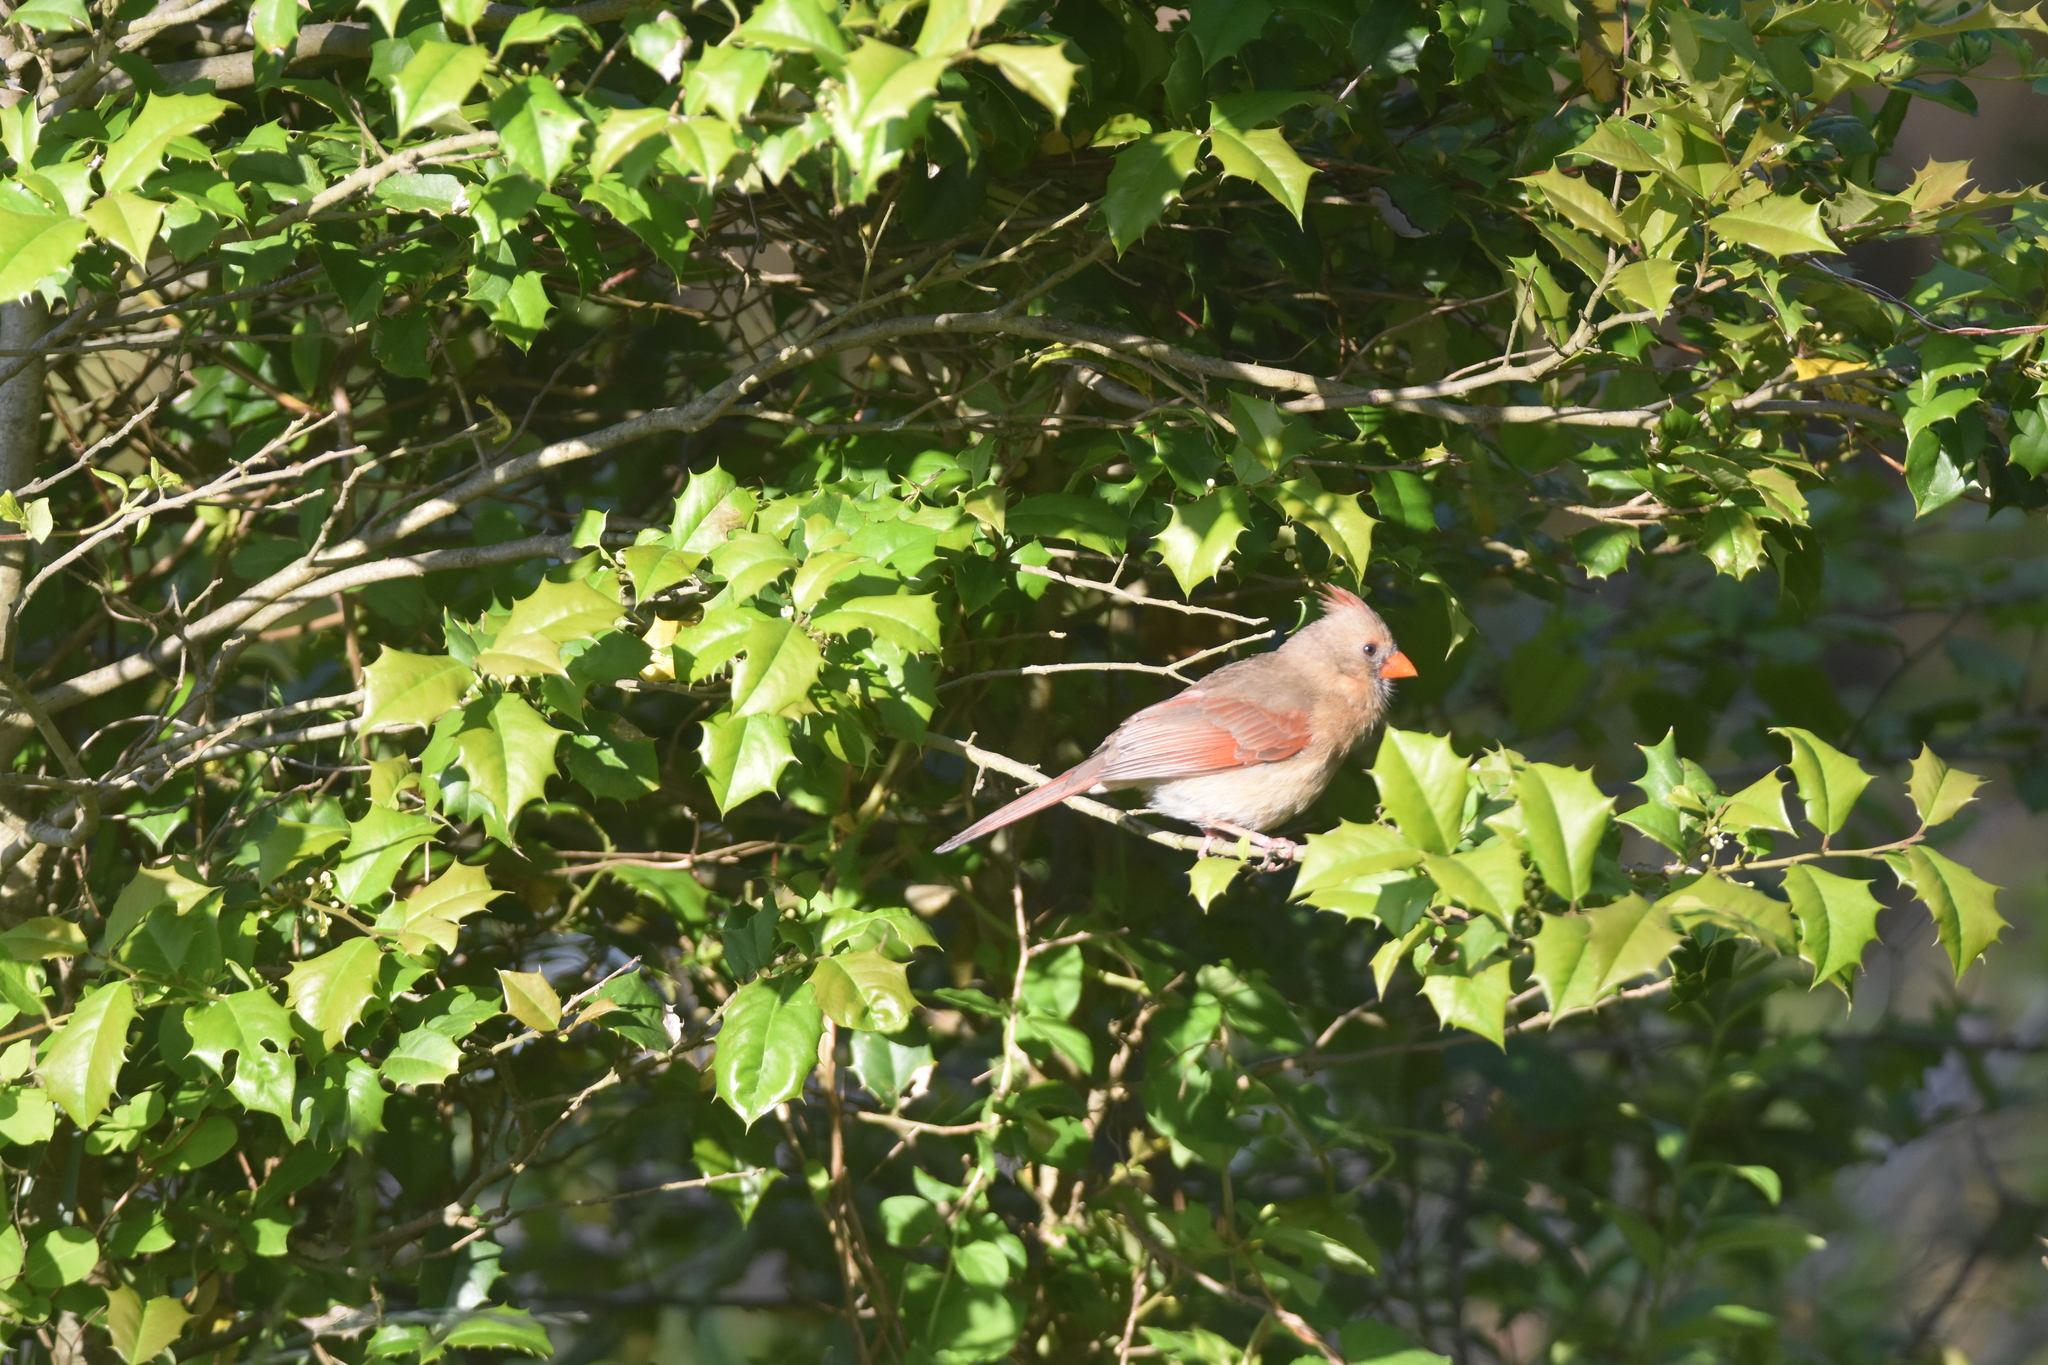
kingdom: Animalia
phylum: Chordata
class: Aves
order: Passeriformes
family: Cardinalidae
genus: Cardinalis
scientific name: Cardinalis cardinalis
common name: Northern cardinal
